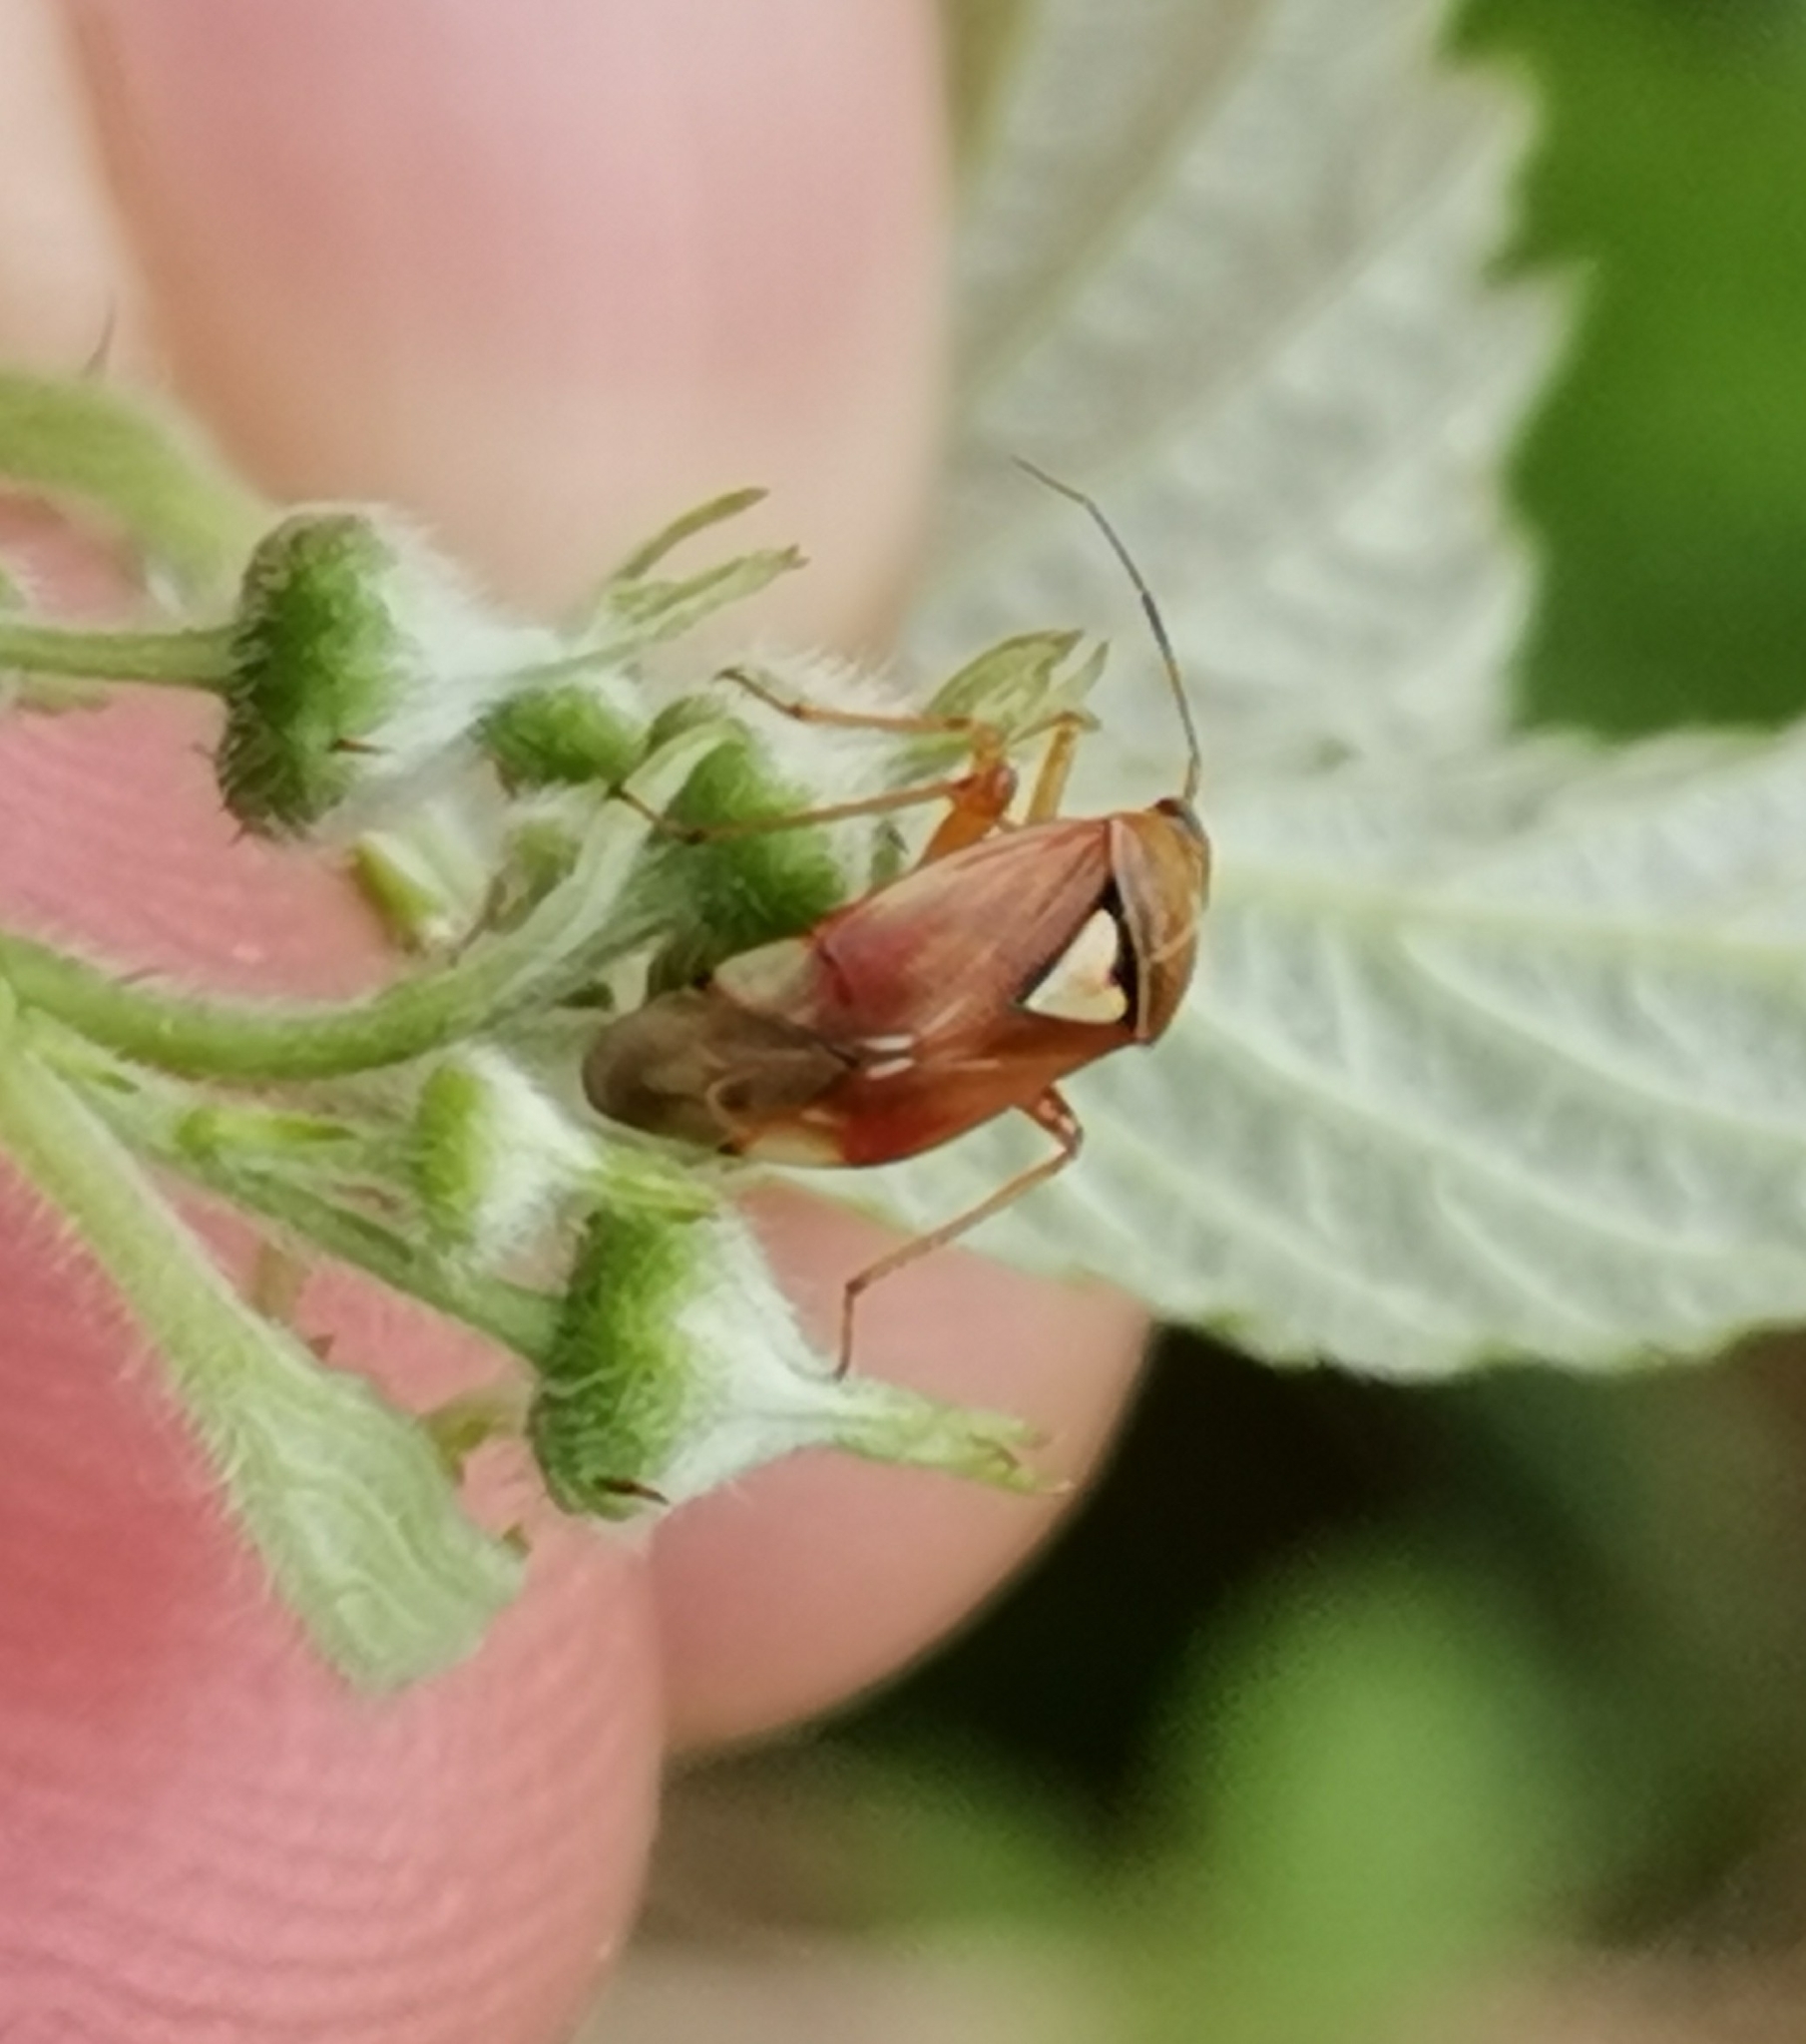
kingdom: Animalia
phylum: Arthropoda
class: Insecta
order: Hemiptera
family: Miridae
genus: Lygus
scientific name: Lygus pratensis
